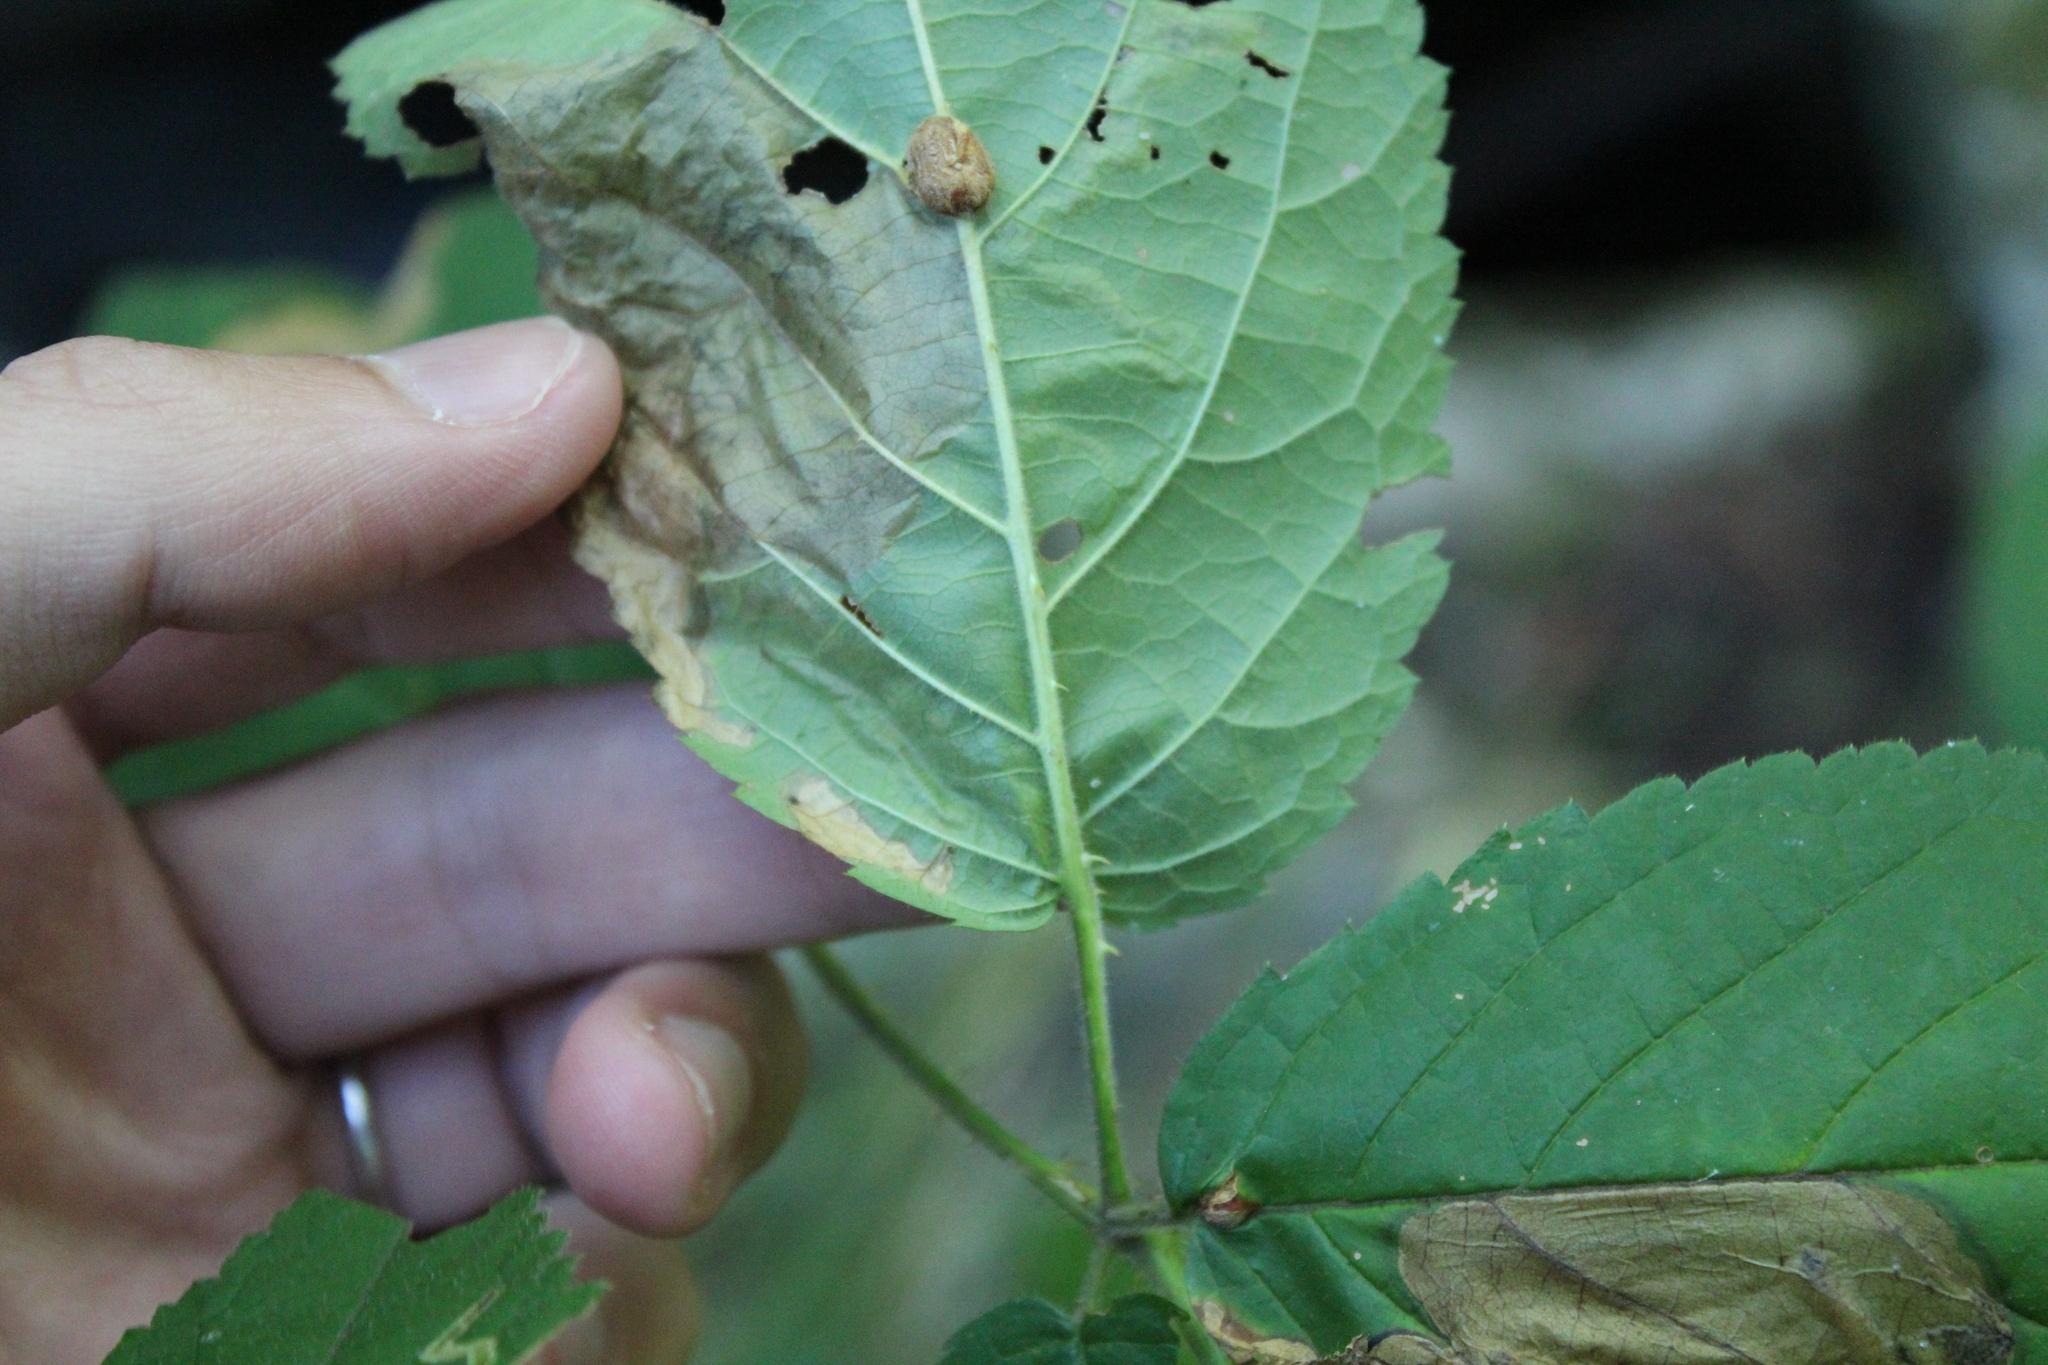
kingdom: Animalia
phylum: Arthropoda
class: Insecta
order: Diptera
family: Agromyzidae
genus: Agromyza
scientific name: Agromyza vockerothi
